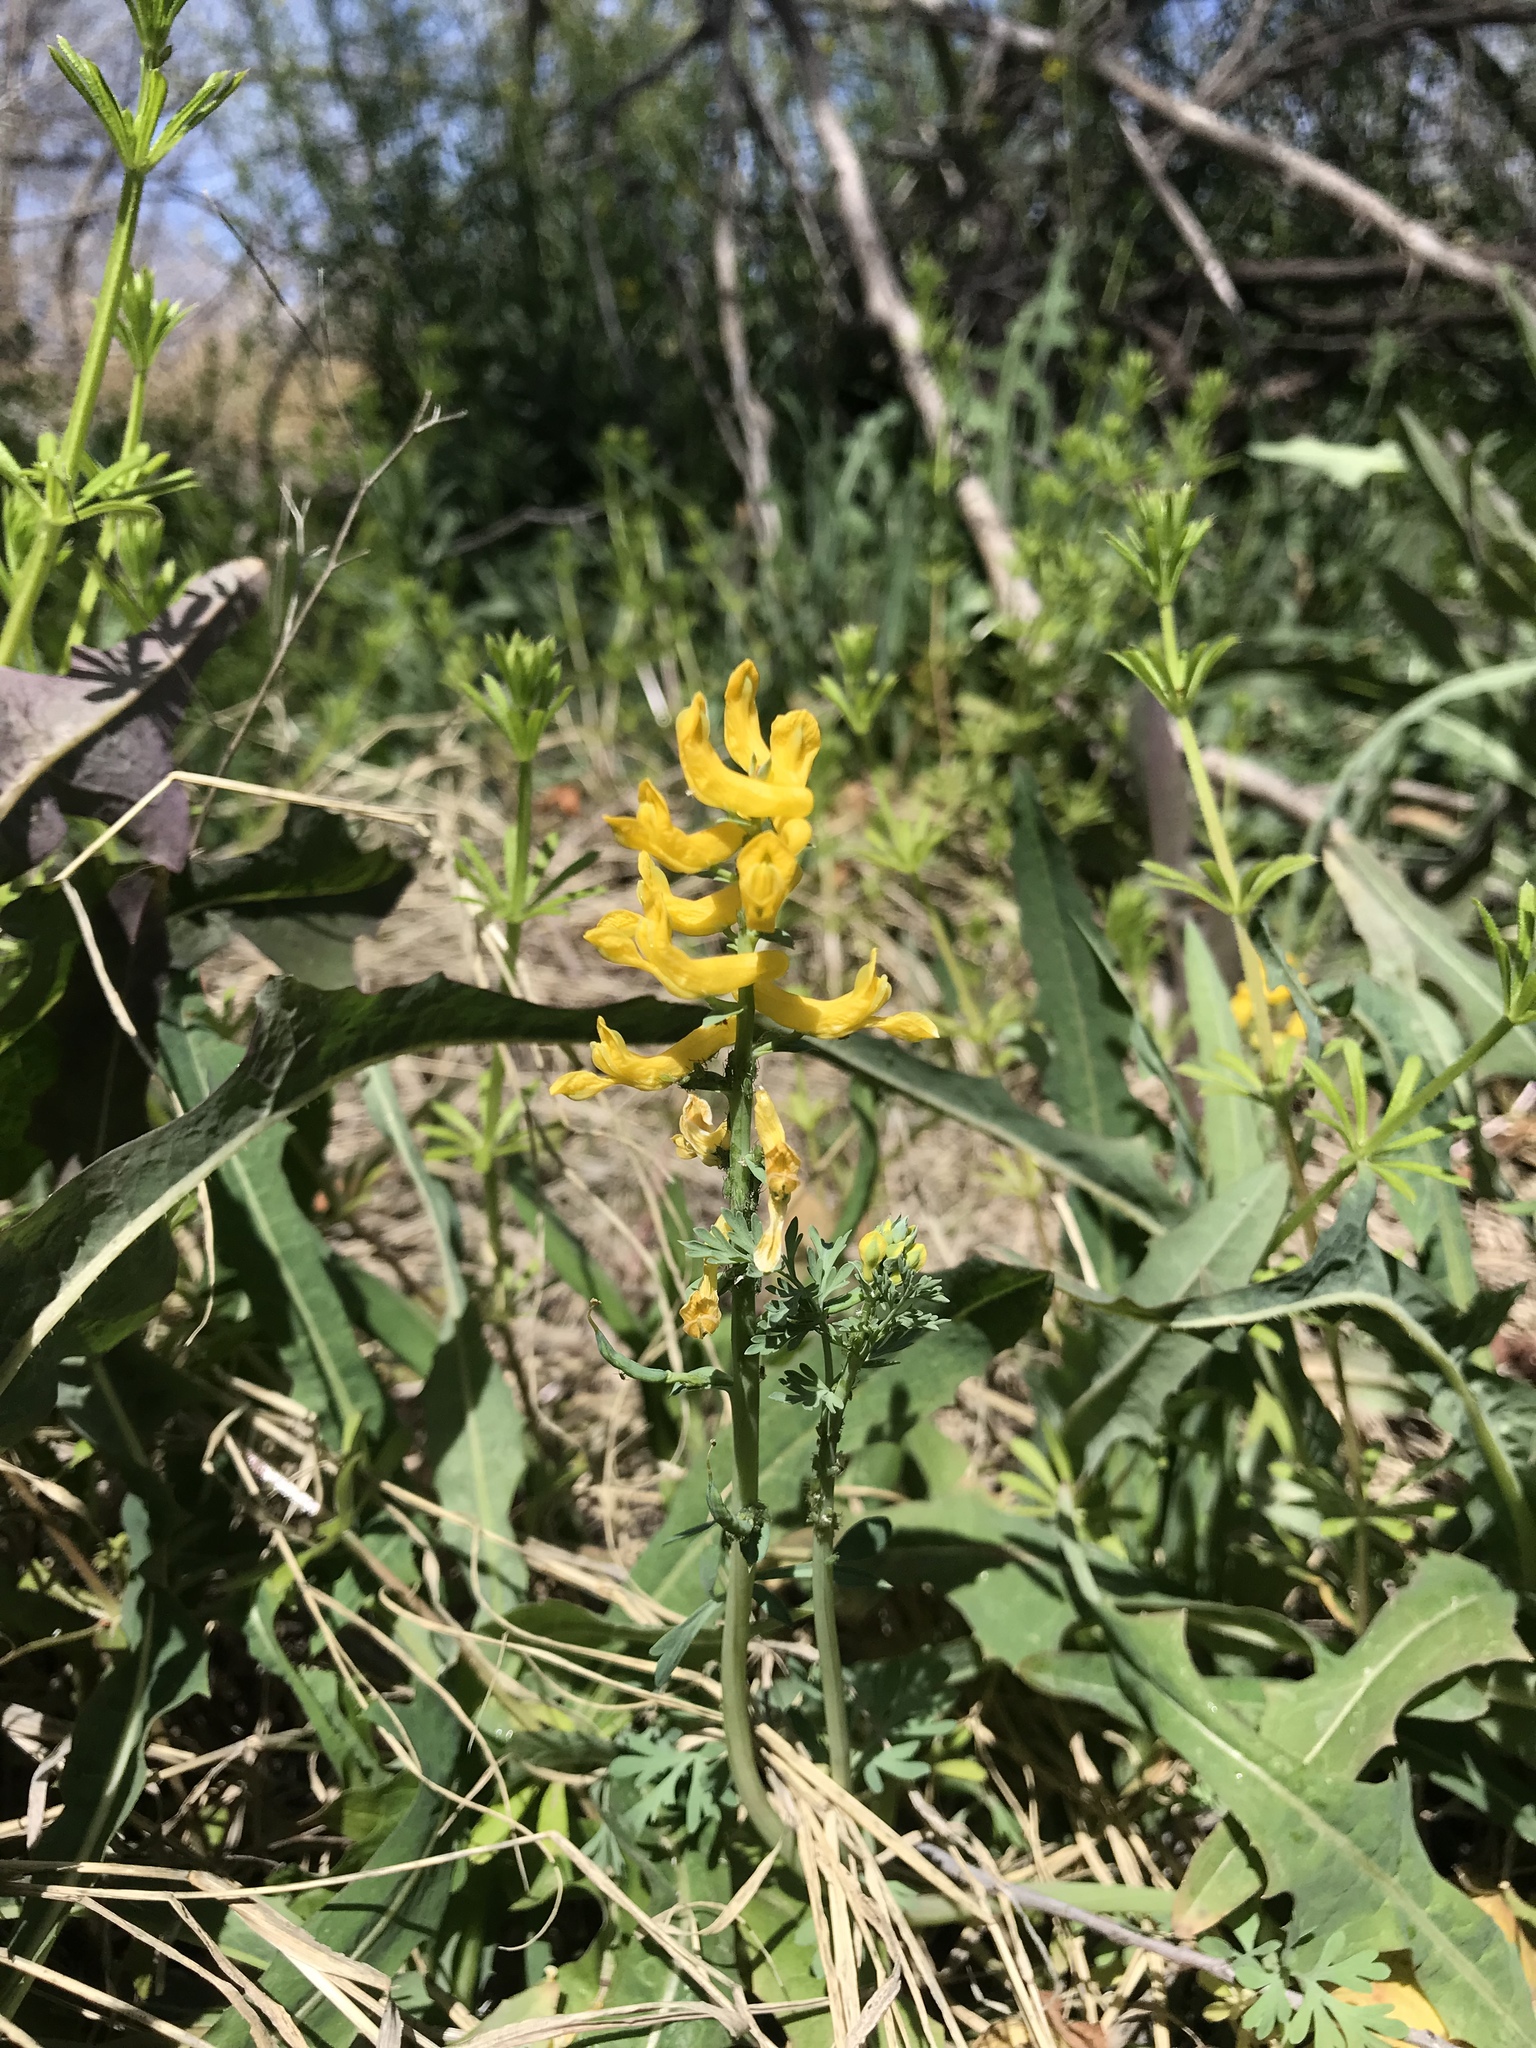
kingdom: Plantae
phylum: Tracheophyta
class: Magnoliopsida
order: Ranunculales
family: Papaveraceae
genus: Corydalis
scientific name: Corydalis aurea
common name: Golden corydalis
